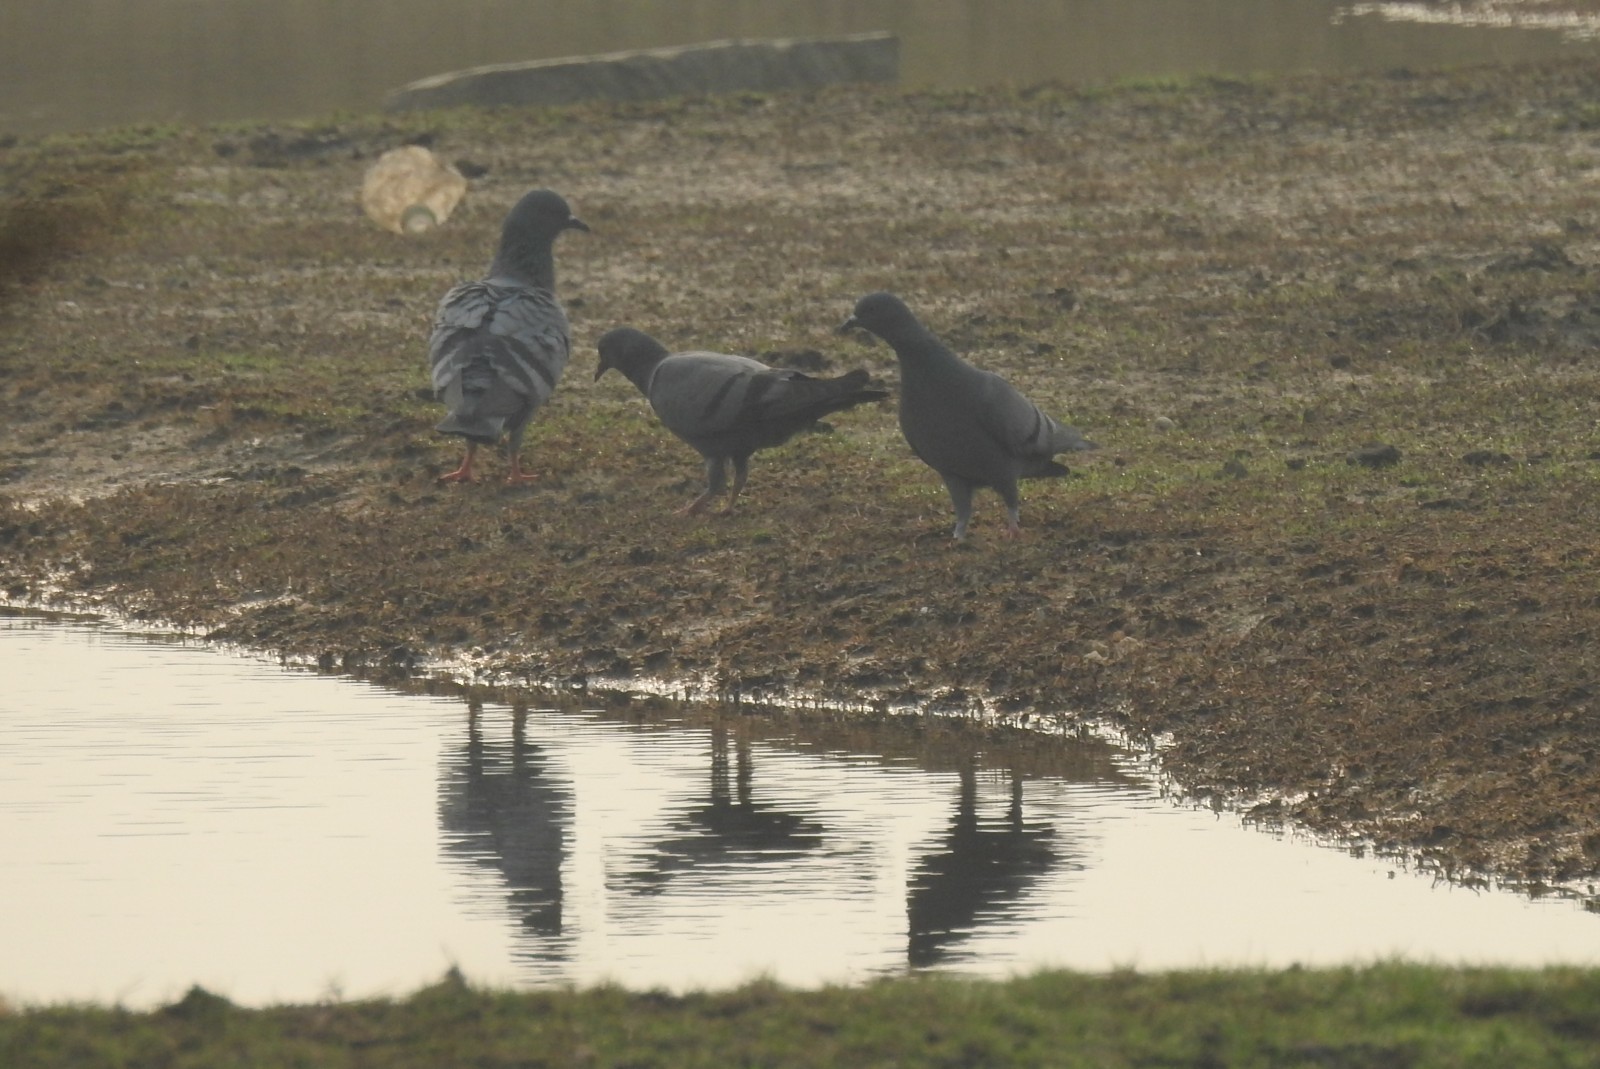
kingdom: Animalia
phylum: Chordata
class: Aves
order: Columbiformes
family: Columbidae
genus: Columba
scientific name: Columba livia
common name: Rock pigeon
